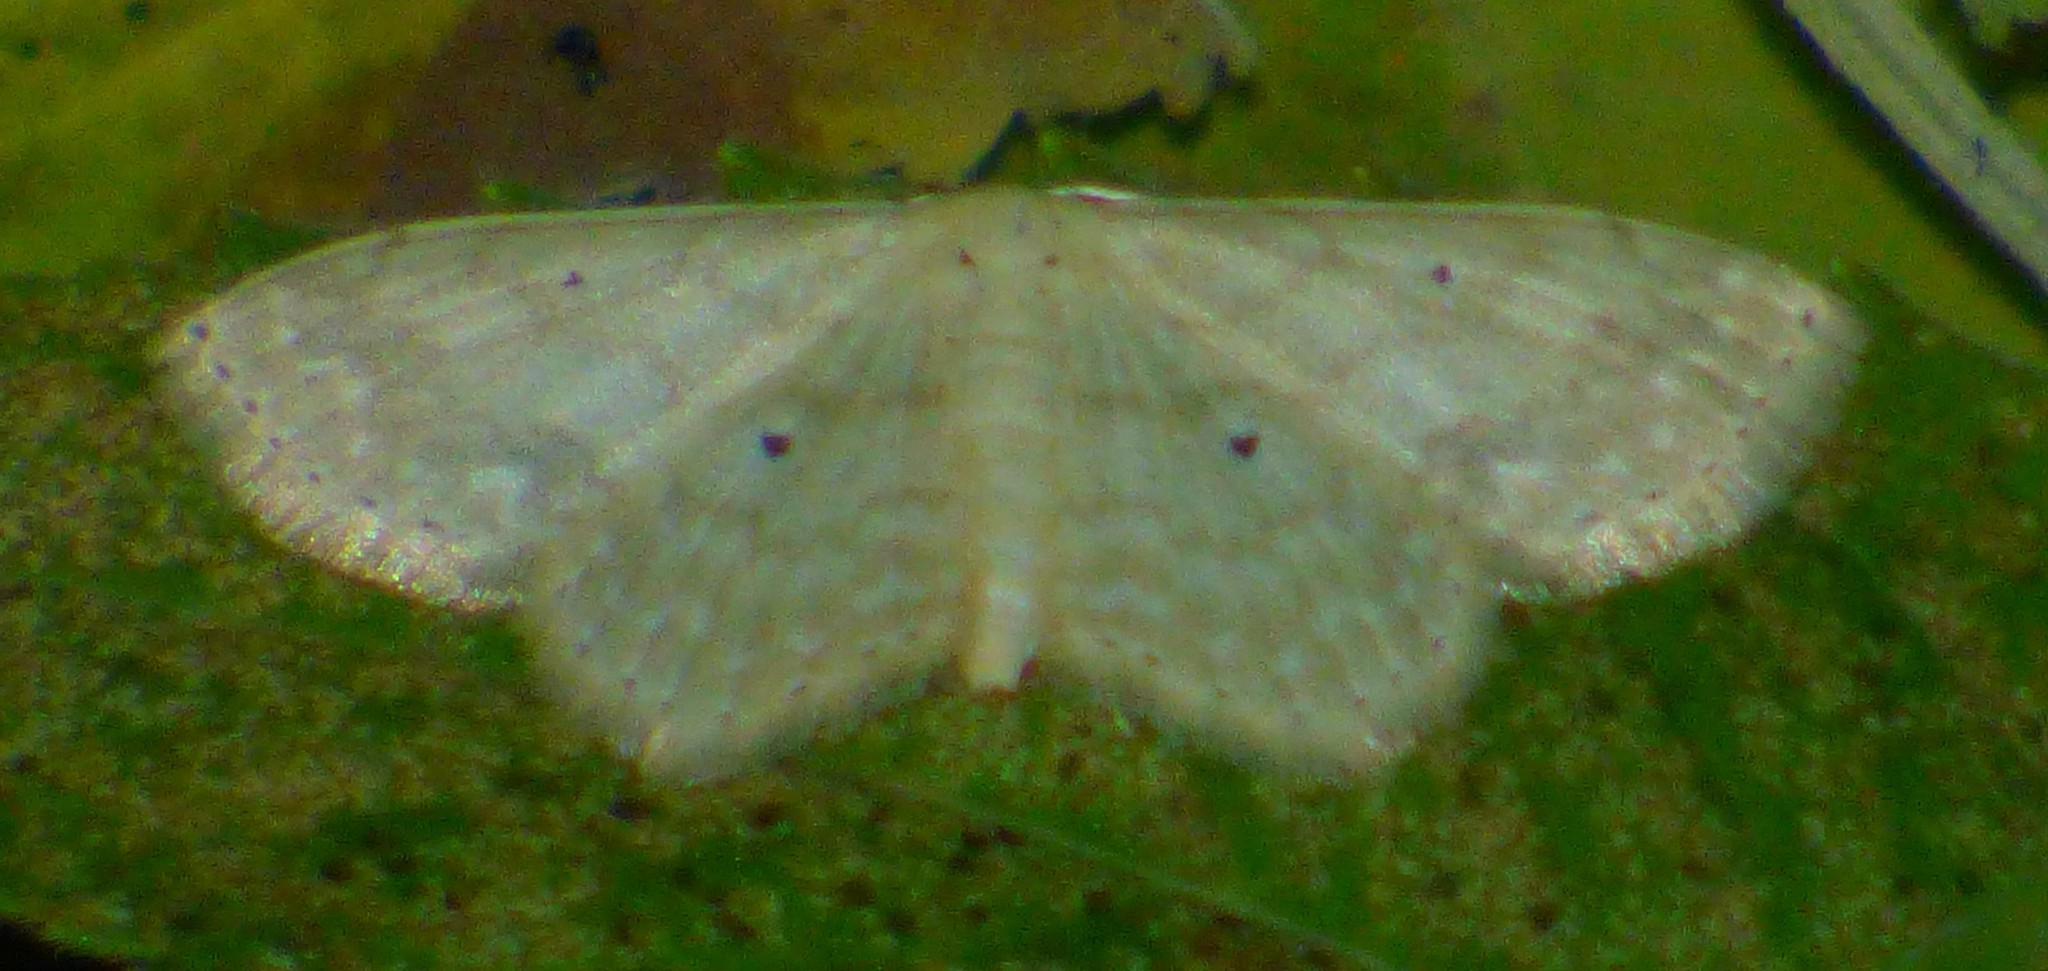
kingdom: Animalia
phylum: Arthropoda
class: Insecta
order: Lepidoptera
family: Geometridae
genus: Scopula
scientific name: Scopula inductata
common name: Soft-lined wave
